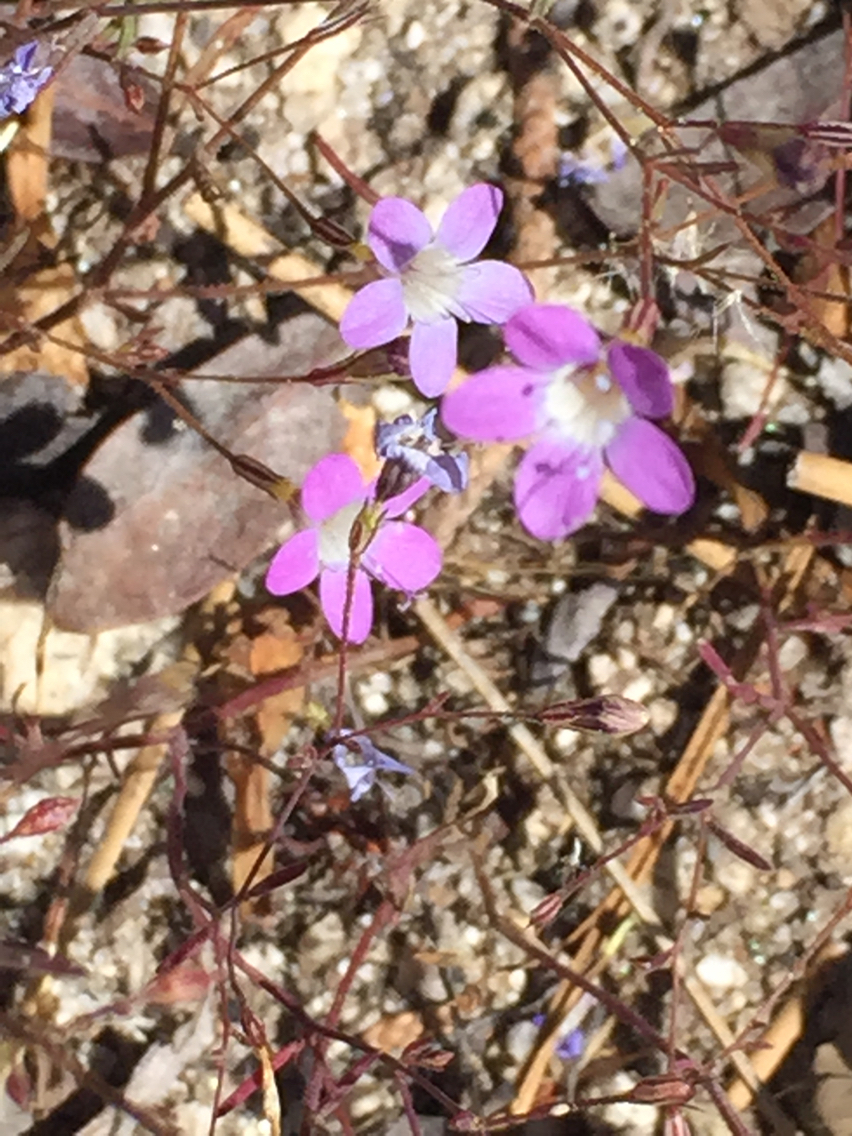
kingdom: Plantae
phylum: Tracheophyta
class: Magnoliopsida
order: Ericales
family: Polemoniaceae
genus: Navarretia
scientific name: Navarretia leptalea
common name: Bridges' pincushionplant
